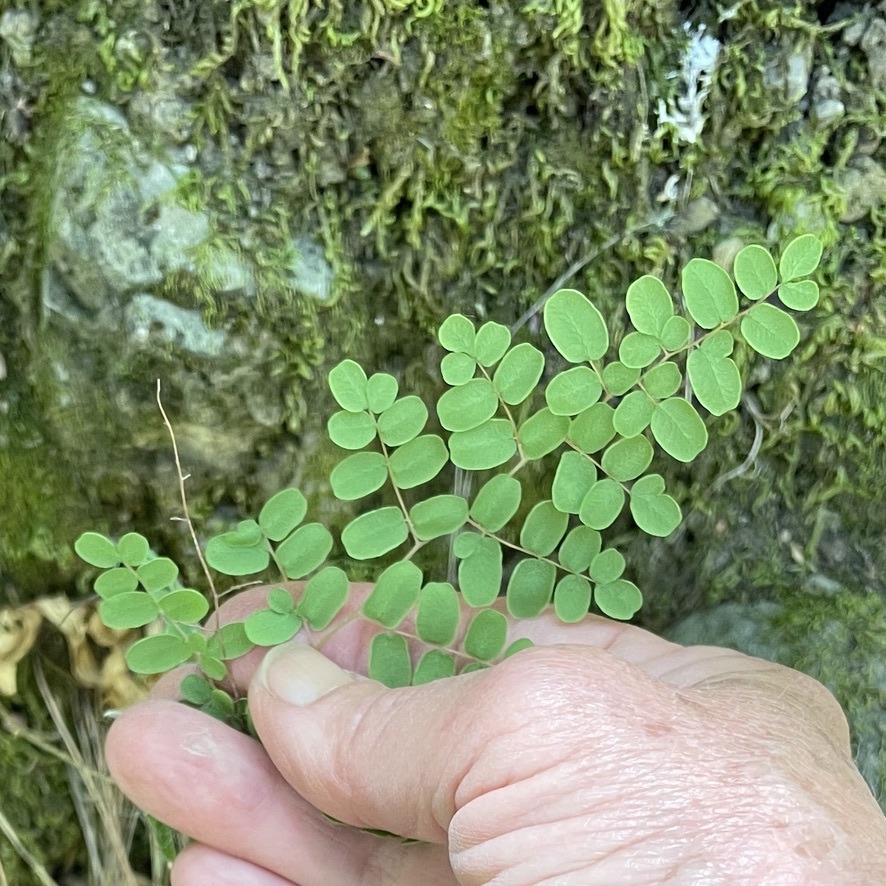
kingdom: Plantae
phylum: Tracheophyta
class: Polypodiopsida
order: Polypodiales
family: Pteridaceae
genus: Pellaea
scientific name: Pellaea andromedifolia
